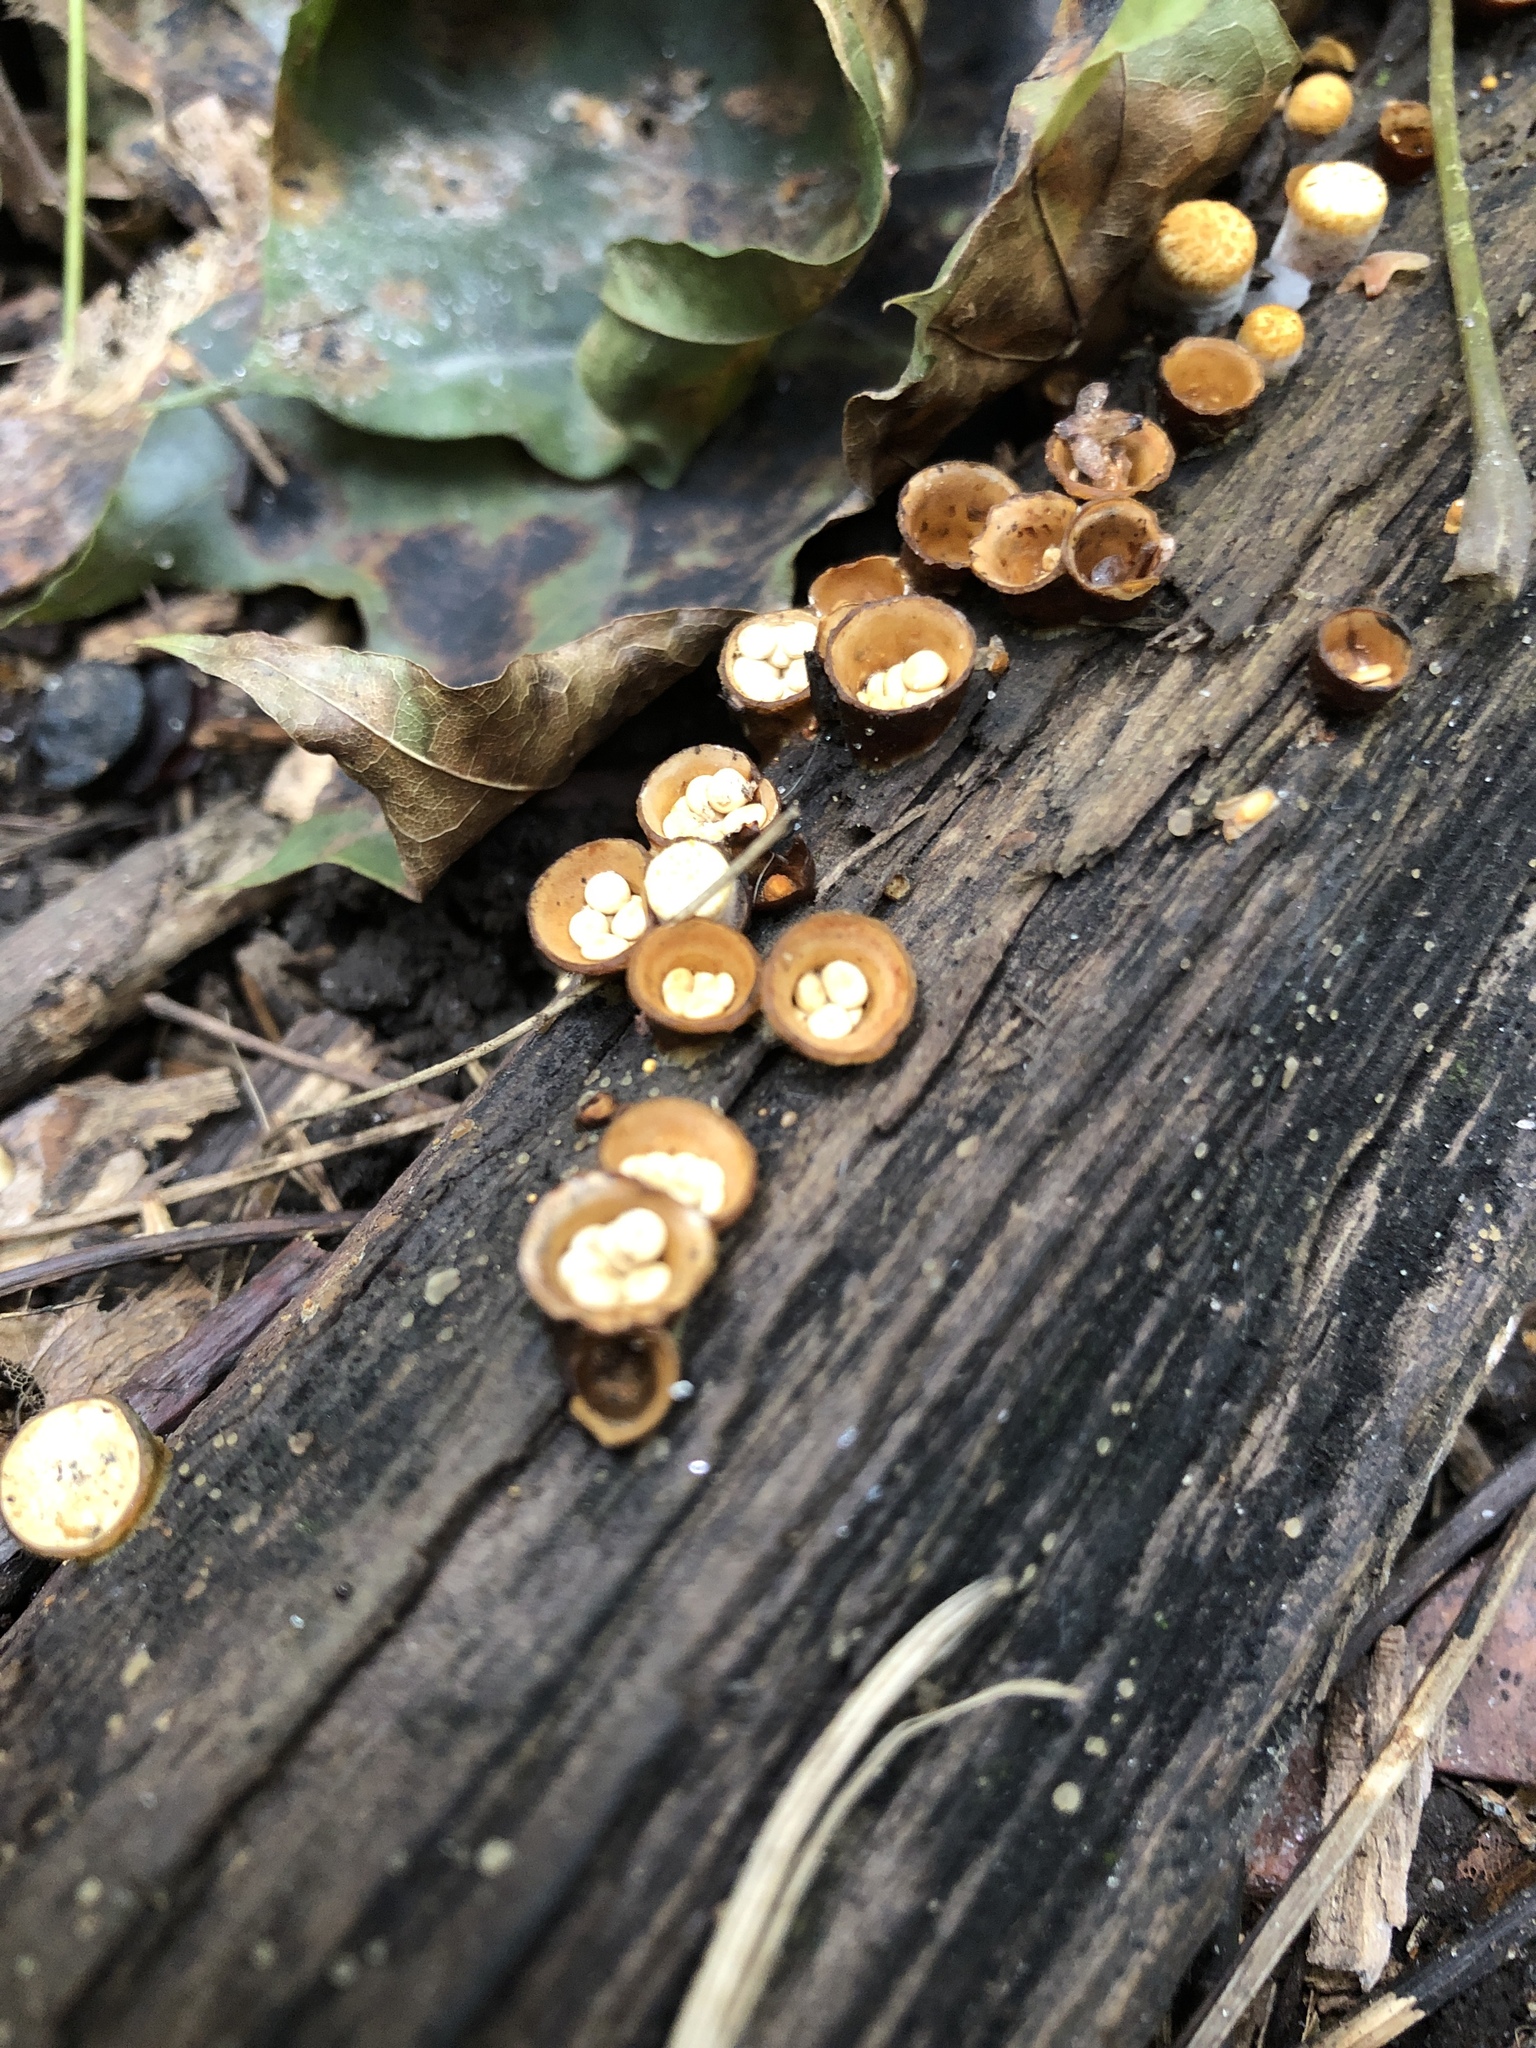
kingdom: Fungi
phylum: Basidiomycota
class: Agaricomycetes
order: Agaricales
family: Nidulariaceae
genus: Crucibulum
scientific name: Crucibulum laeve
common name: Common bird's nest
